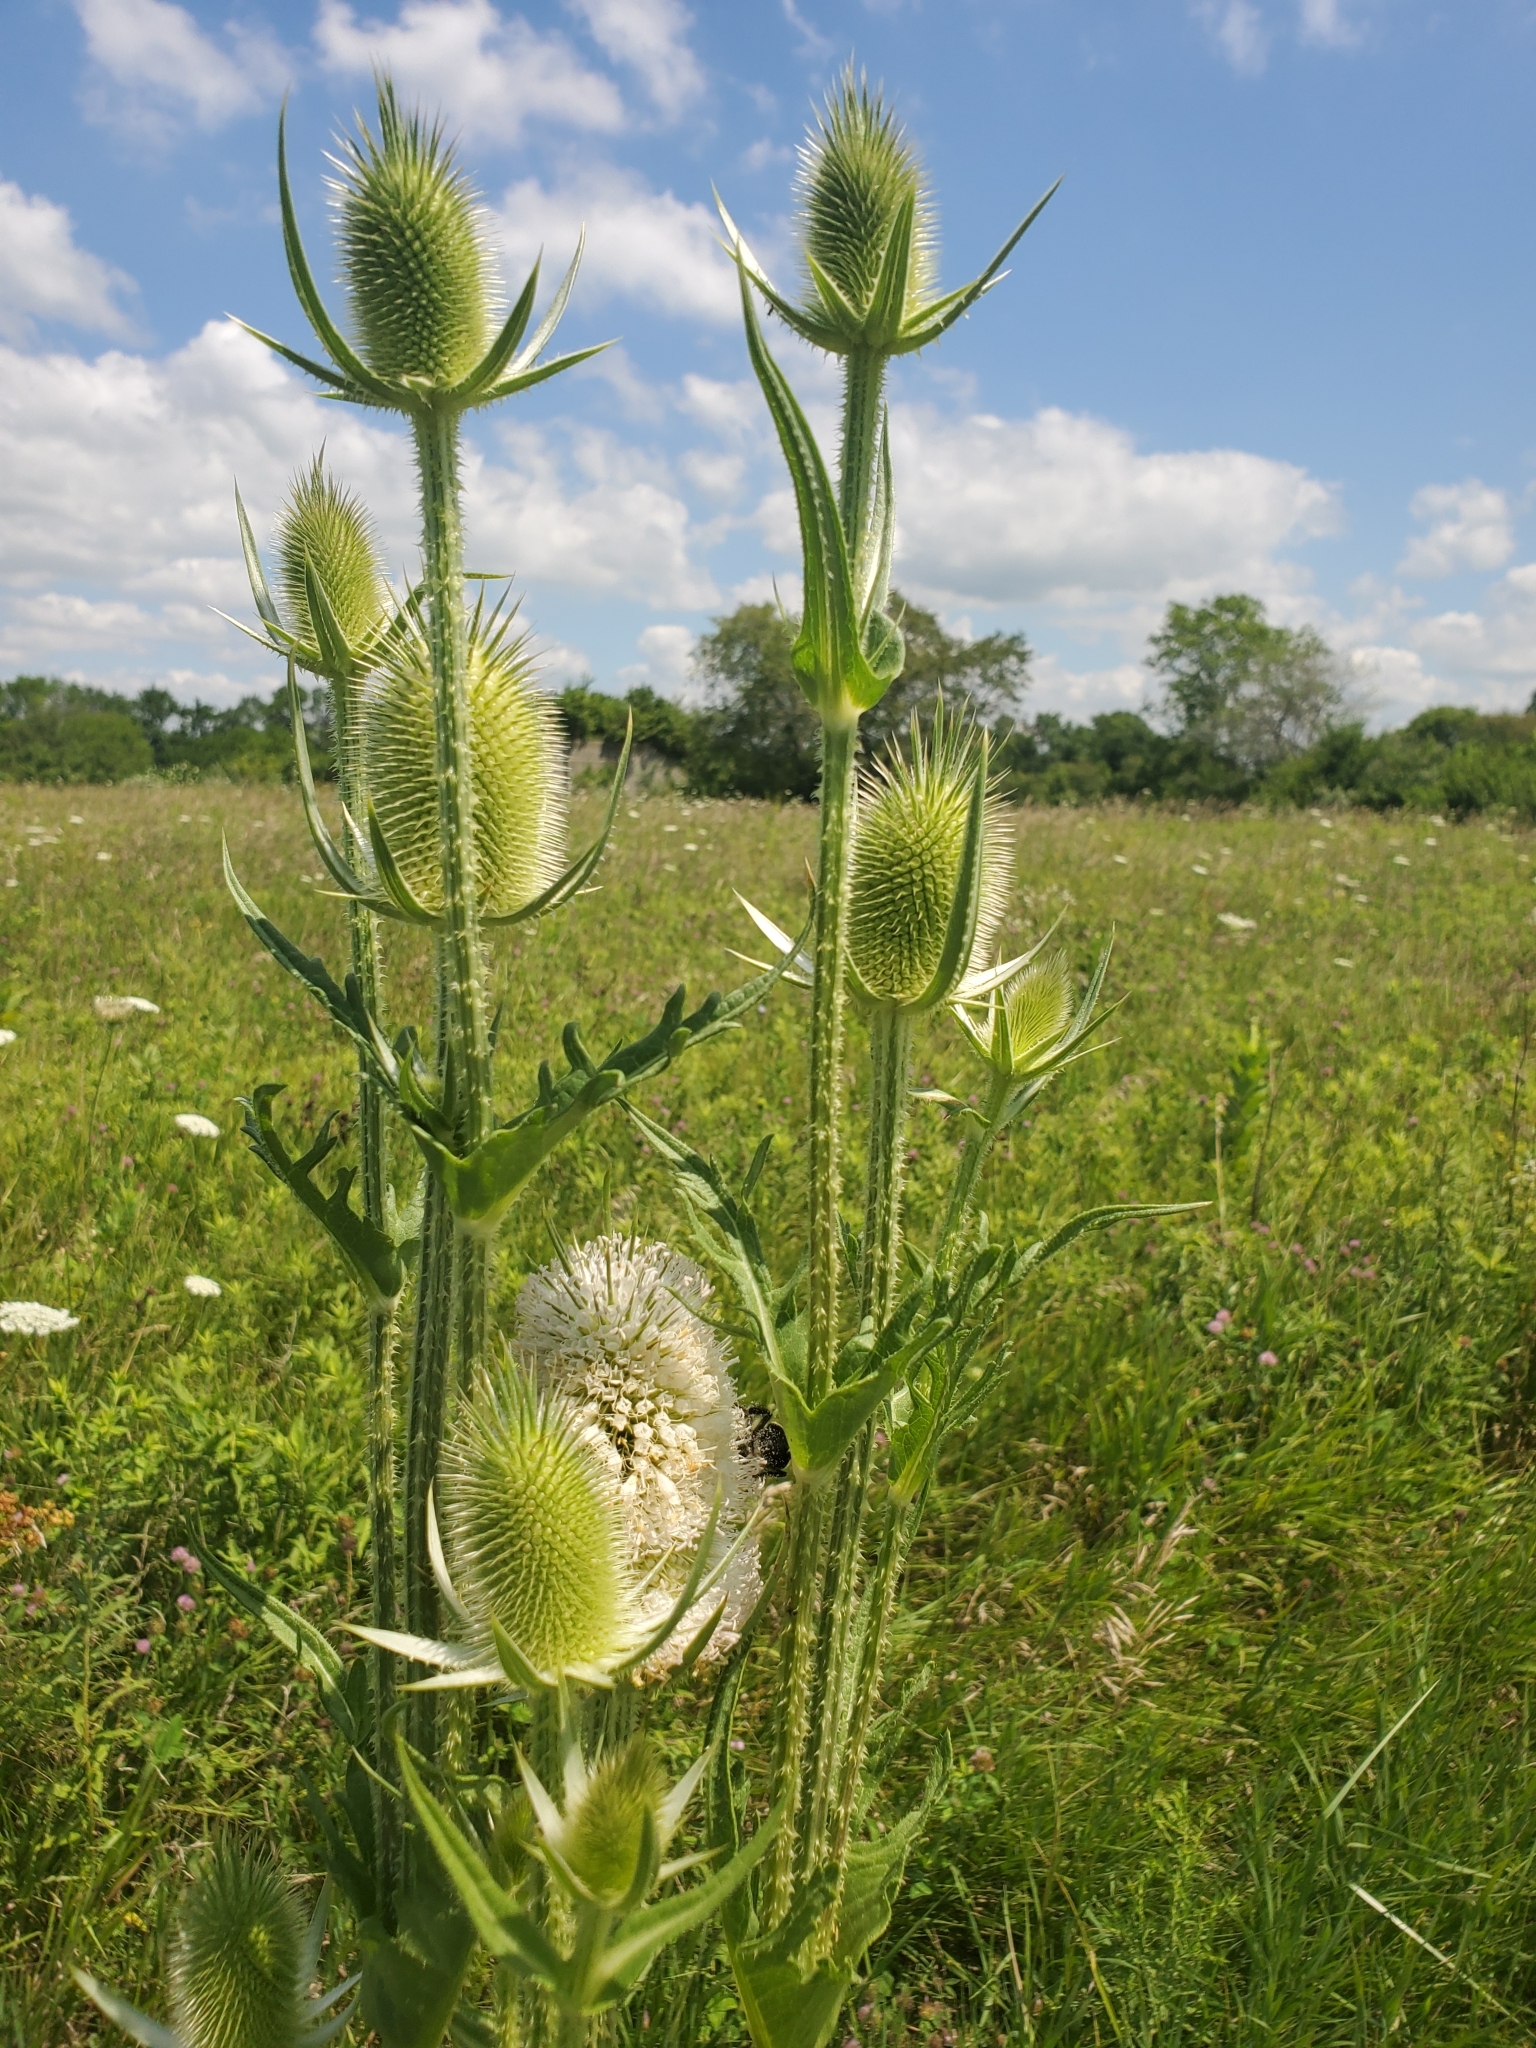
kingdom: Plantae
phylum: Tracheophyta
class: Magnoliopsida
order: Dipsacales
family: Caprifoliaceae
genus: Dipsacus
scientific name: Dipsacus laciniatus
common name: Cut-leaved teasel
